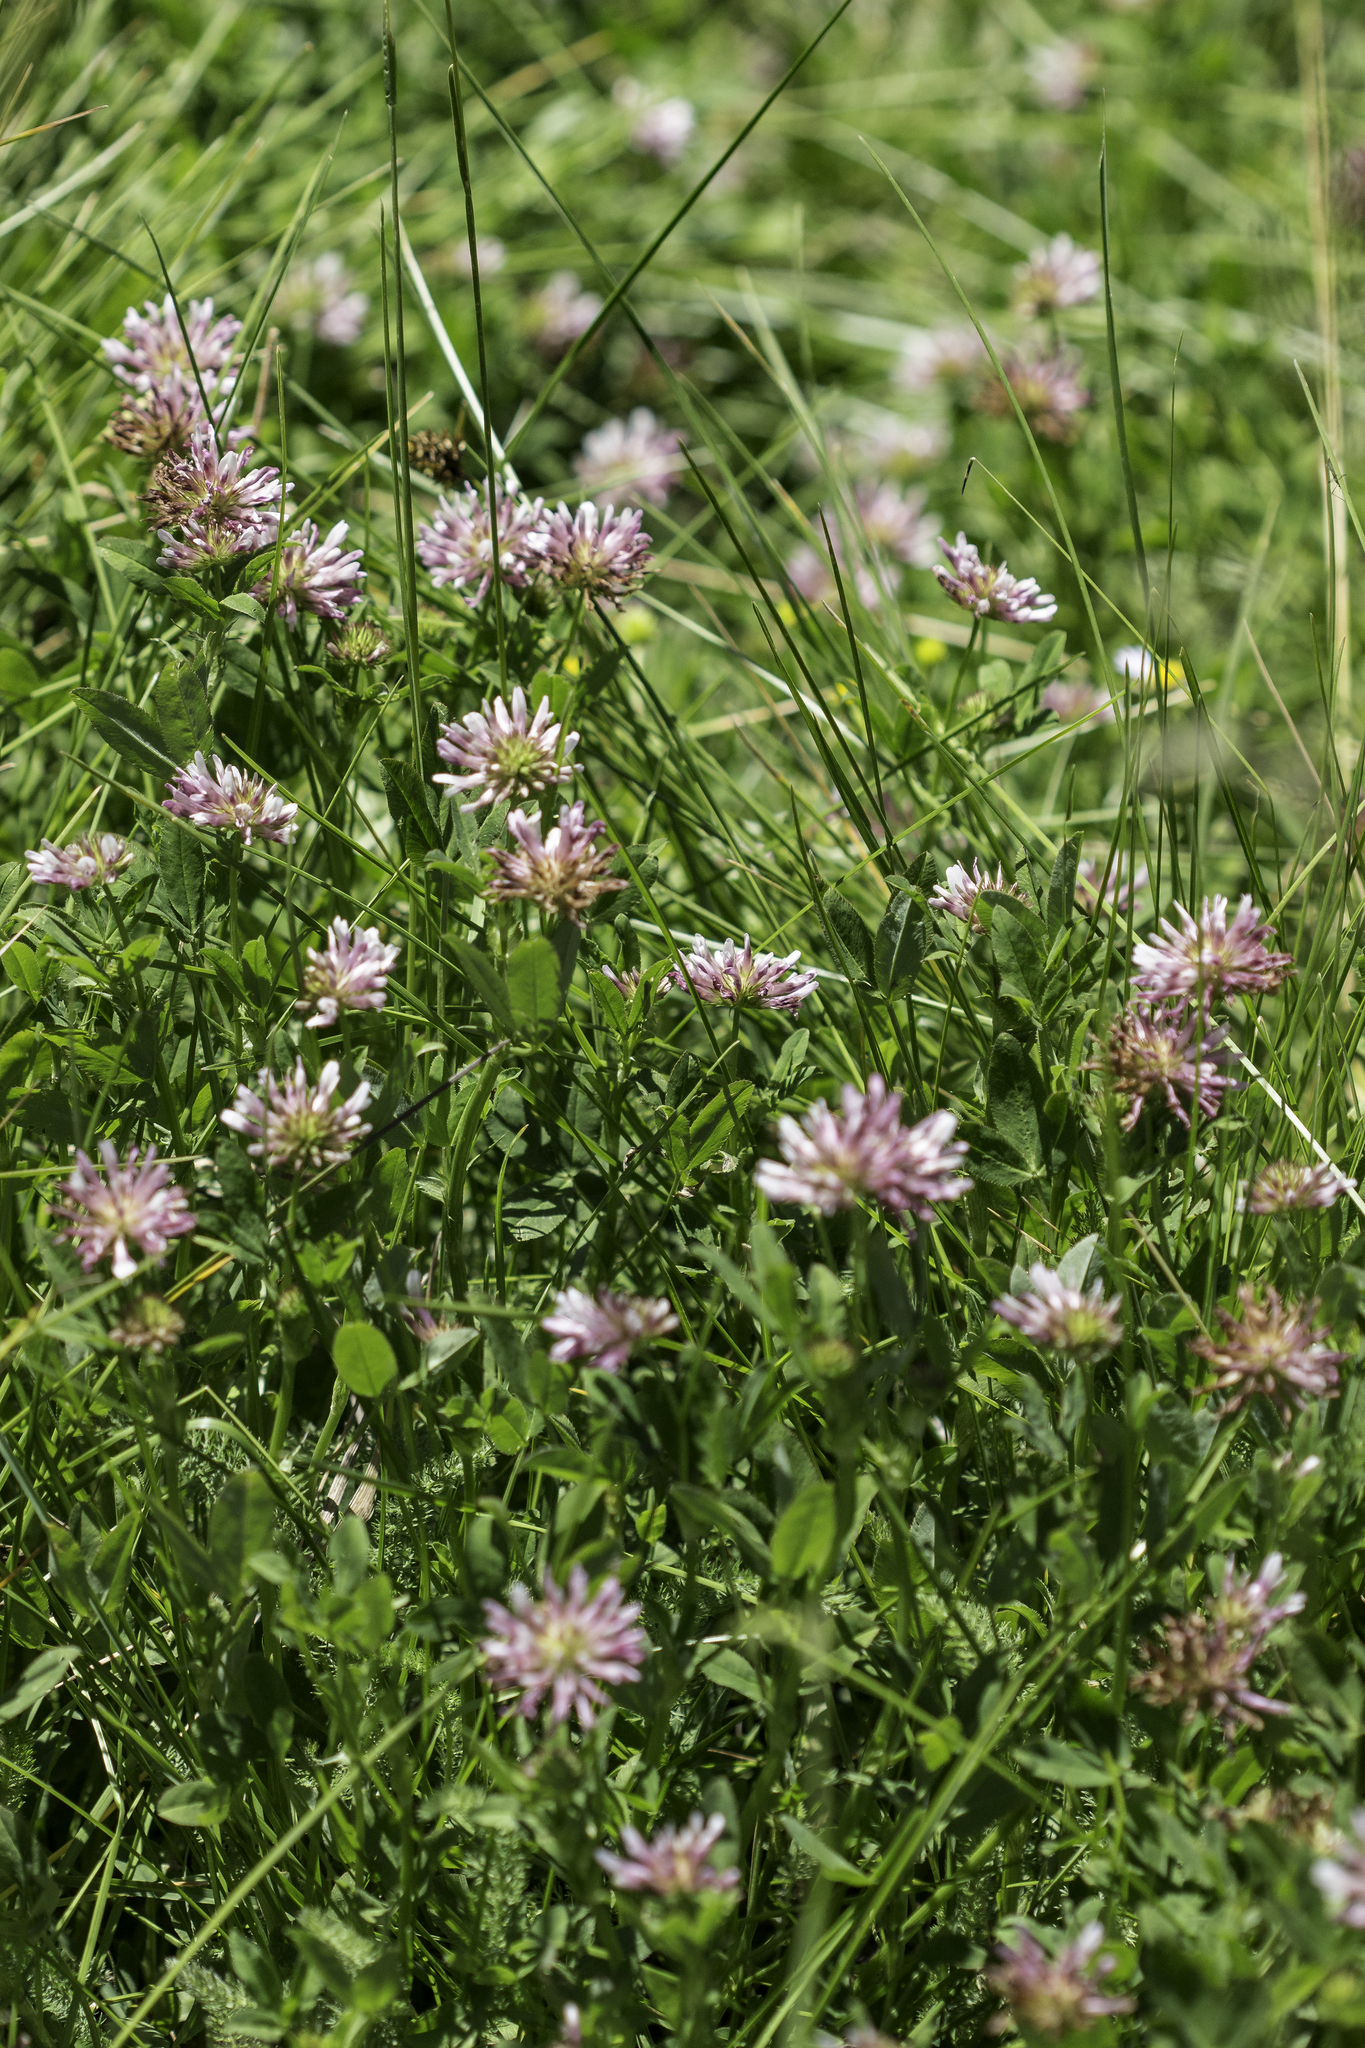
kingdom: Plantae
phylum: Tracheophyta
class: Magnoliopsida
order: Fabales
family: Fabaceae
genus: Trifolium
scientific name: Trifolium wormskioldii
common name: Springbank clover
